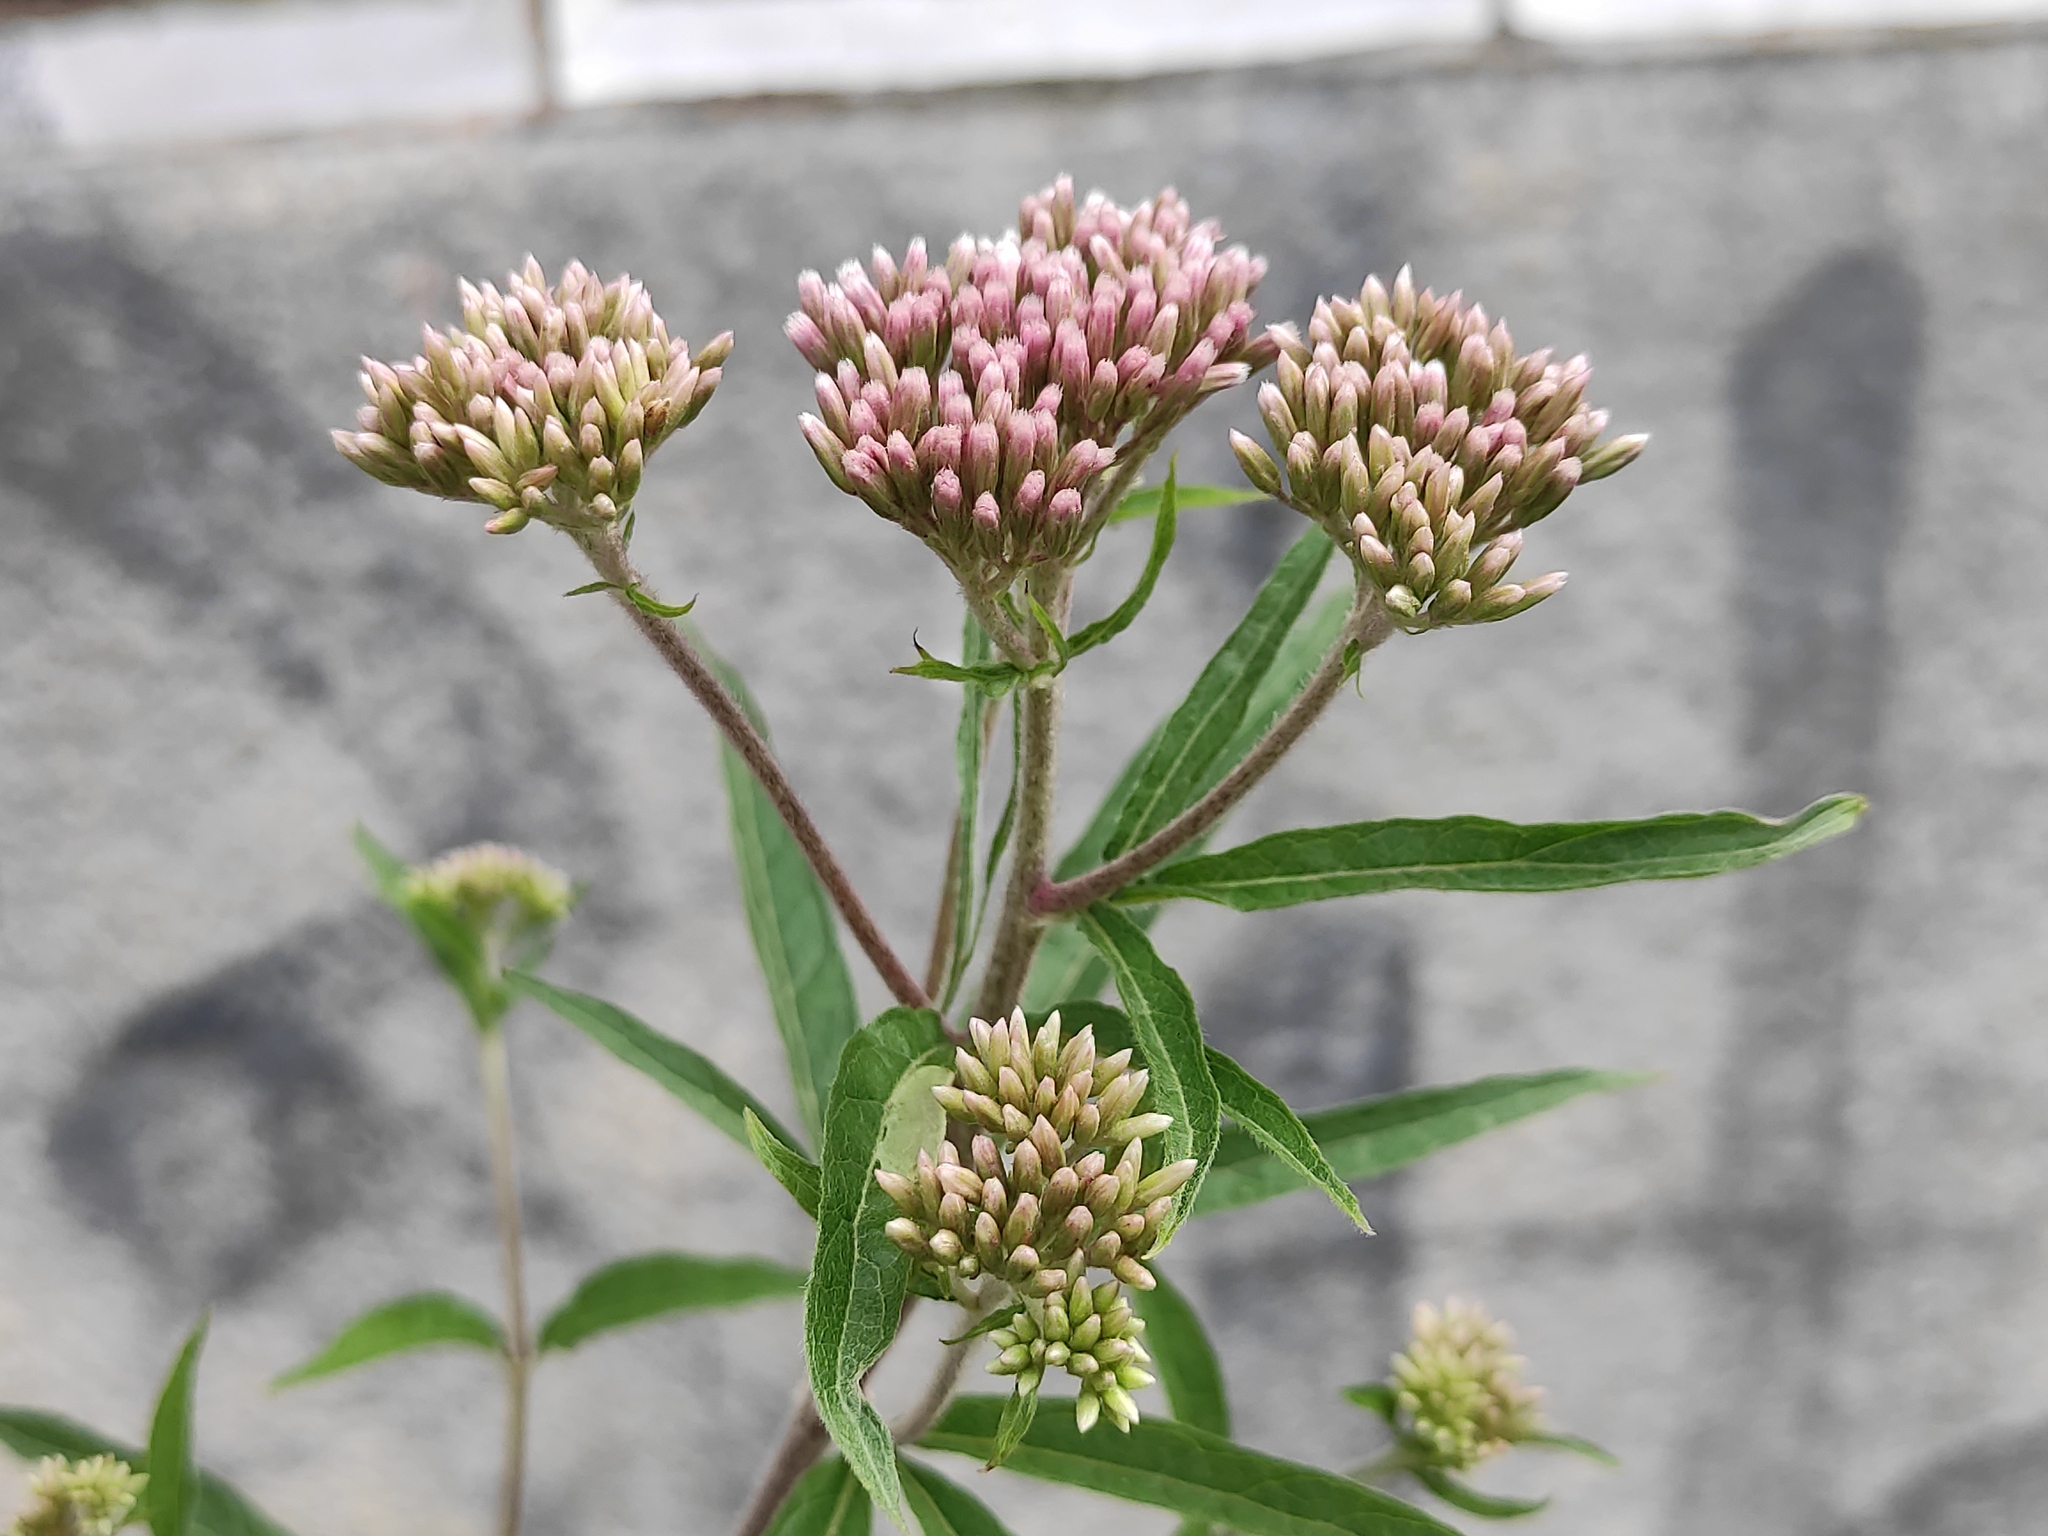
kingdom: Plantae
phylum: Tracheophyta
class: Magnoliopsida
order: Asterales
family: Asteraceae
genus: Eupatorium
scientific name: Eupatorium cannabinum
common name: Hemp-agrimony
